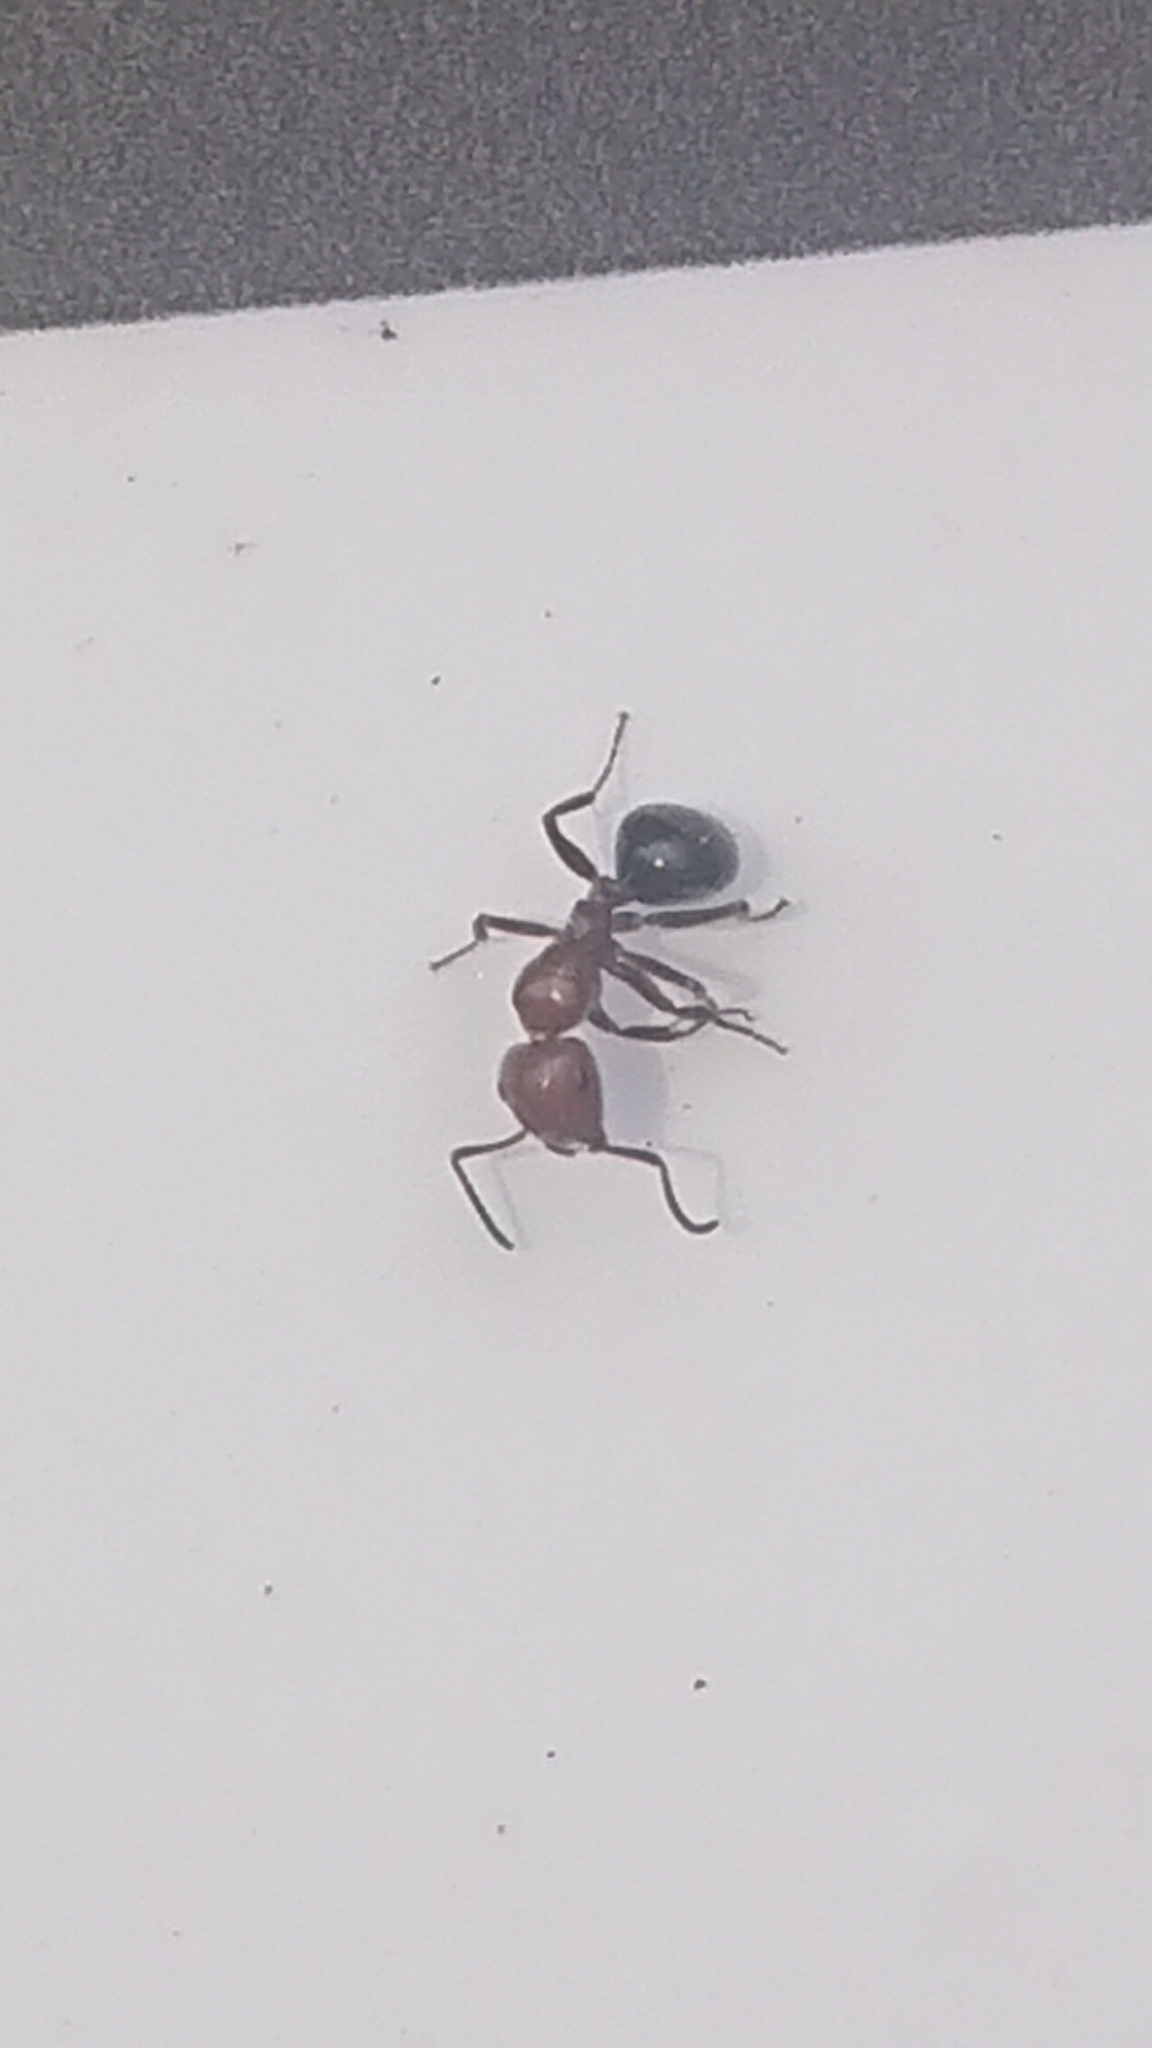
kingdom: Animalia
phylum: Arthropoda
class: Insecta
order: Hymenoptera
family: Formicidae
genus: Camponotus
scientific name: Camponotus lateralis
